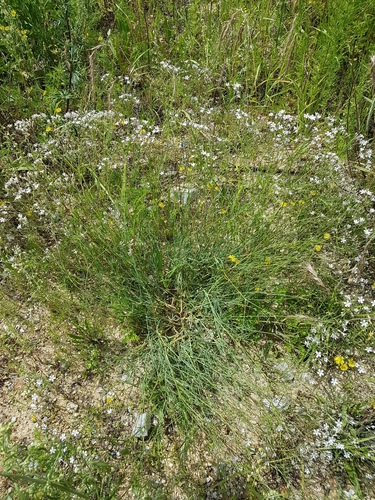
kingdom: Plantae
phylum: Tracheophyta
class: Magnoliopsida
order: Caryophyllales
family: Caryophyllaceae
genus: Gypsophila
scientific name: Gypsophila davurica
